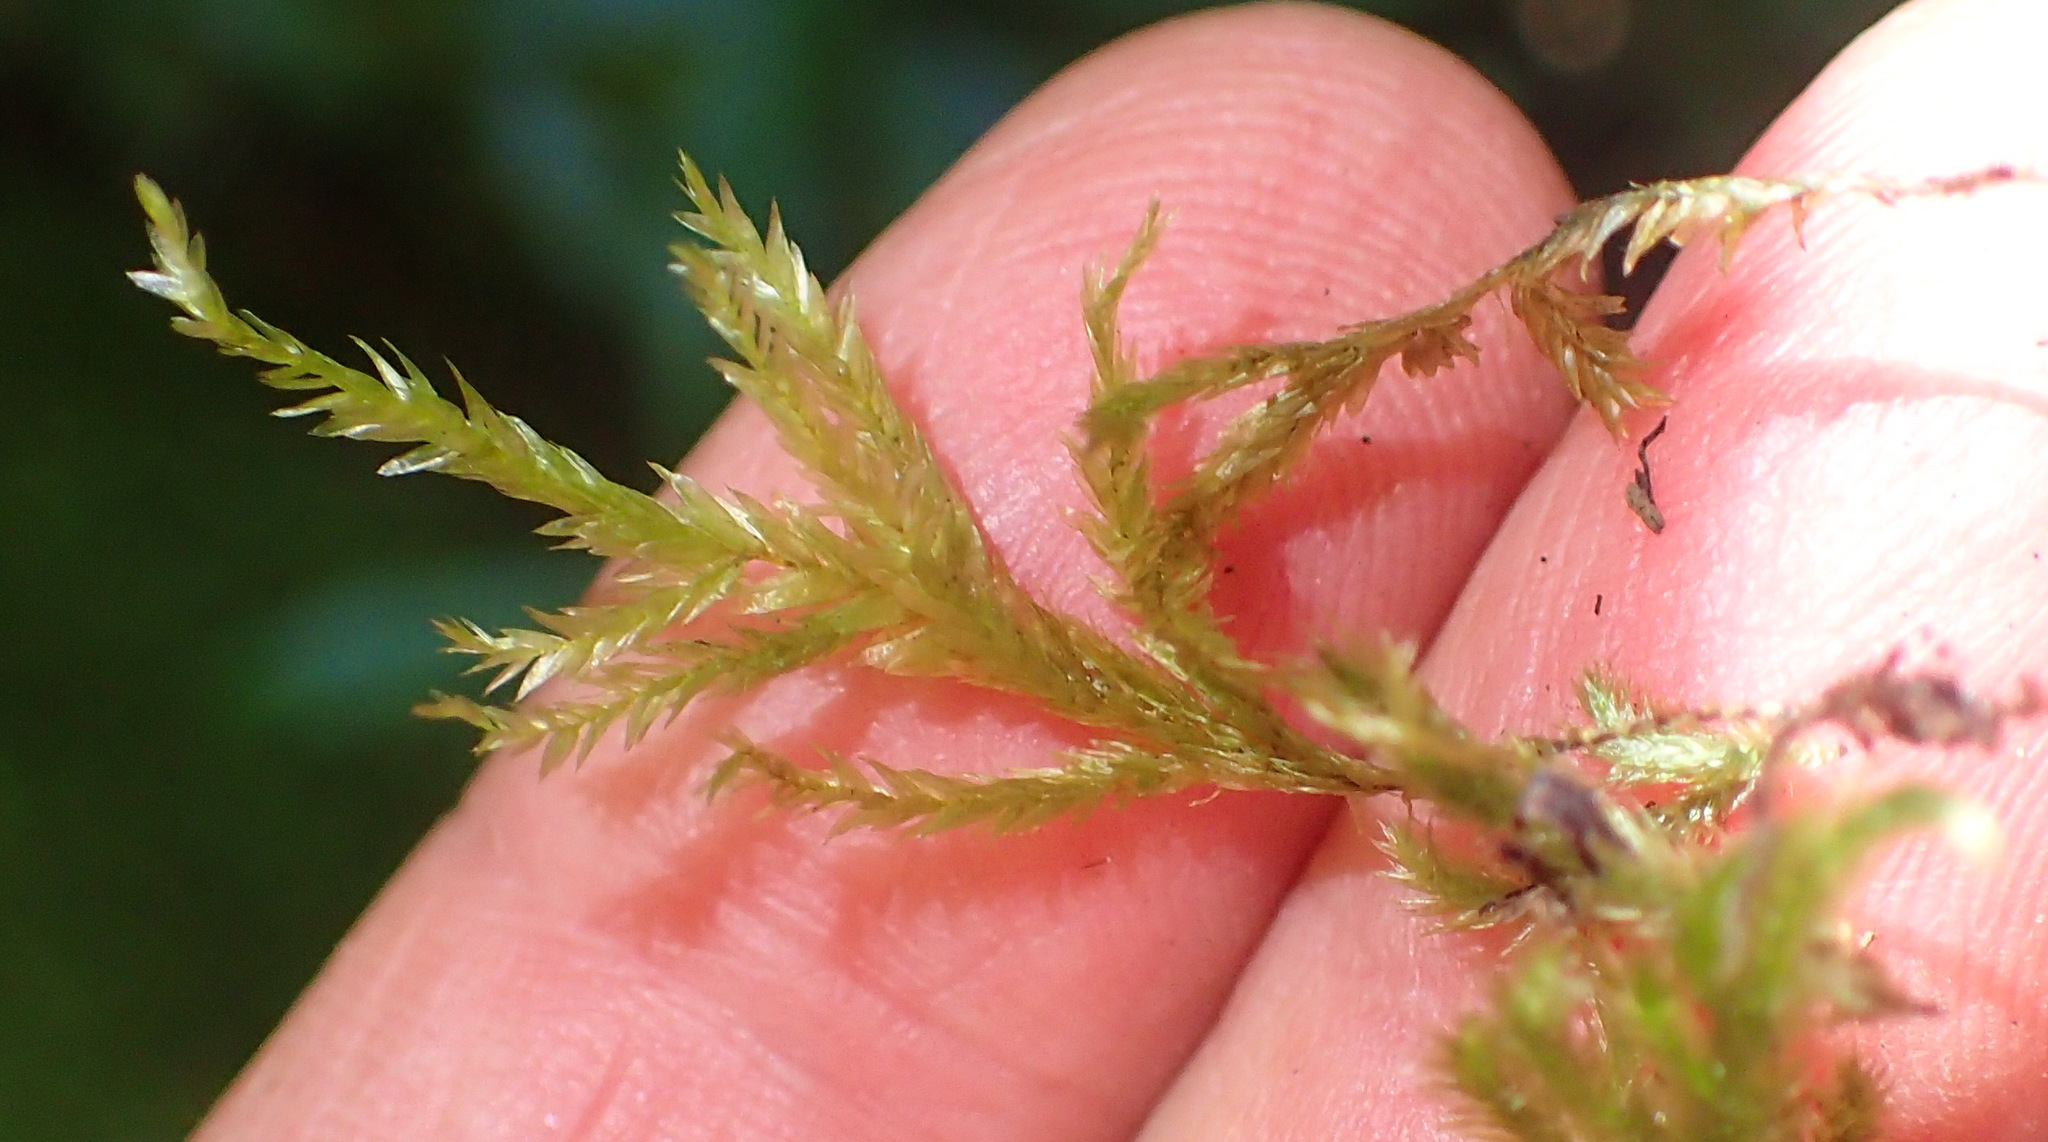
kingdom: Plantae
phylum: Bryophyta
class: Bryopsida
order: Hypnales
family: Neckeraceae
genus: Porotrichum
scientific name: Porotrichum madagassum
